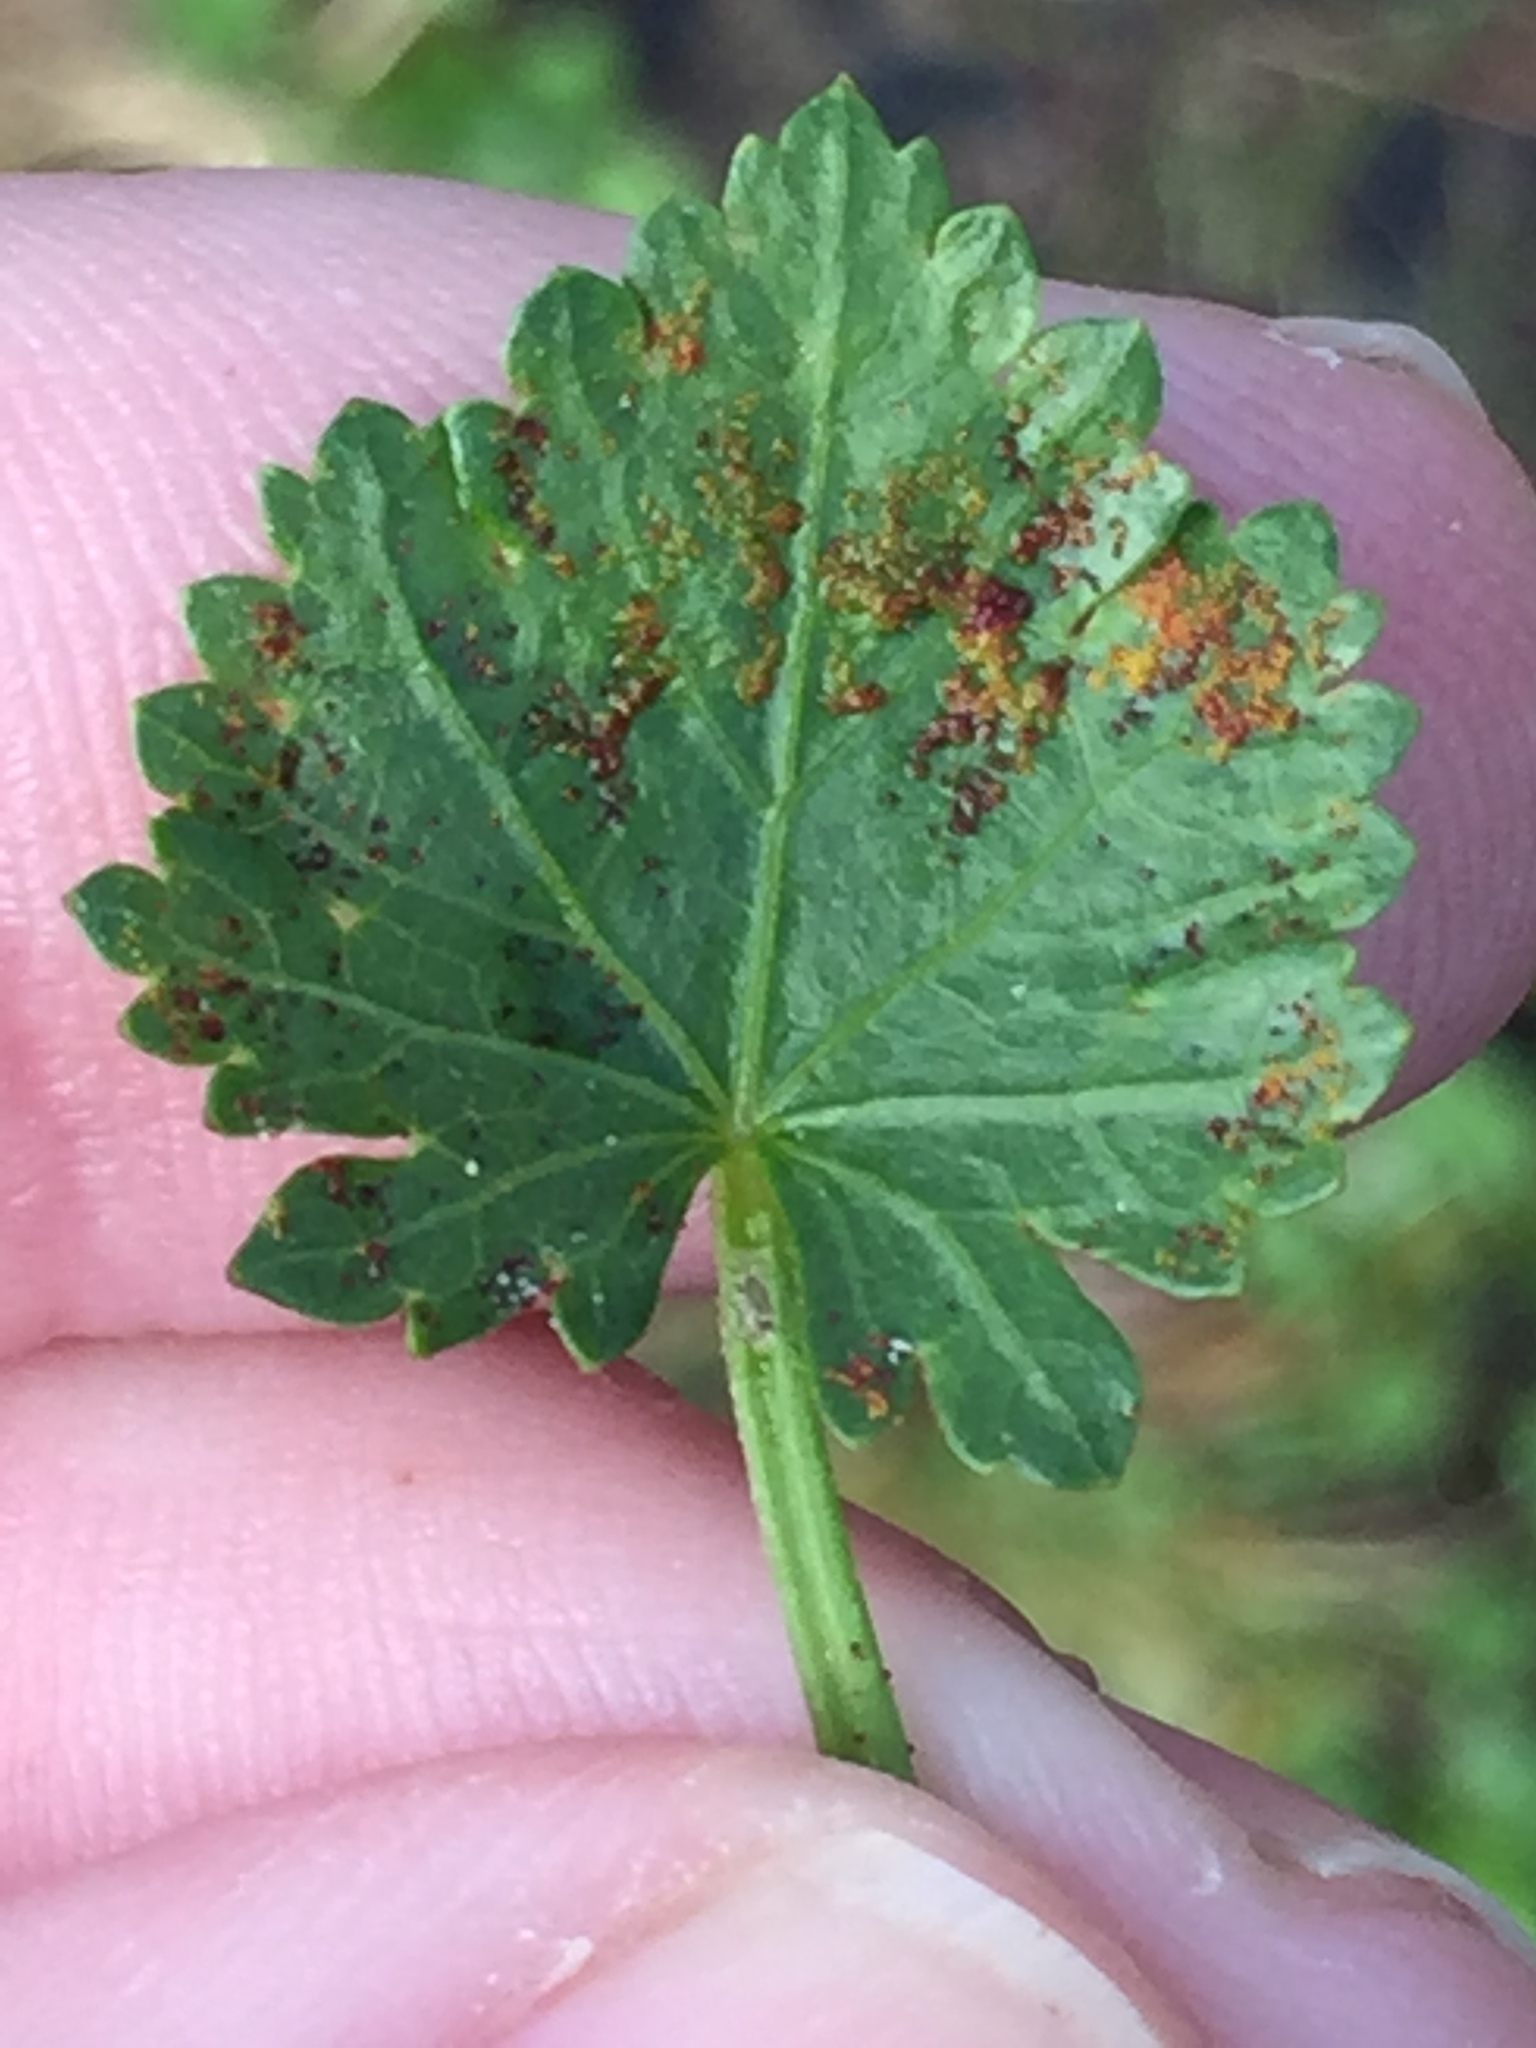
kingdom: Fungi
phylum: Chytridiomycota
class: Chytridiomycetes
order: Chytridiales
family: Synchytriaceae
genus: Synchytrium
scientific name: Synchytrium australe
